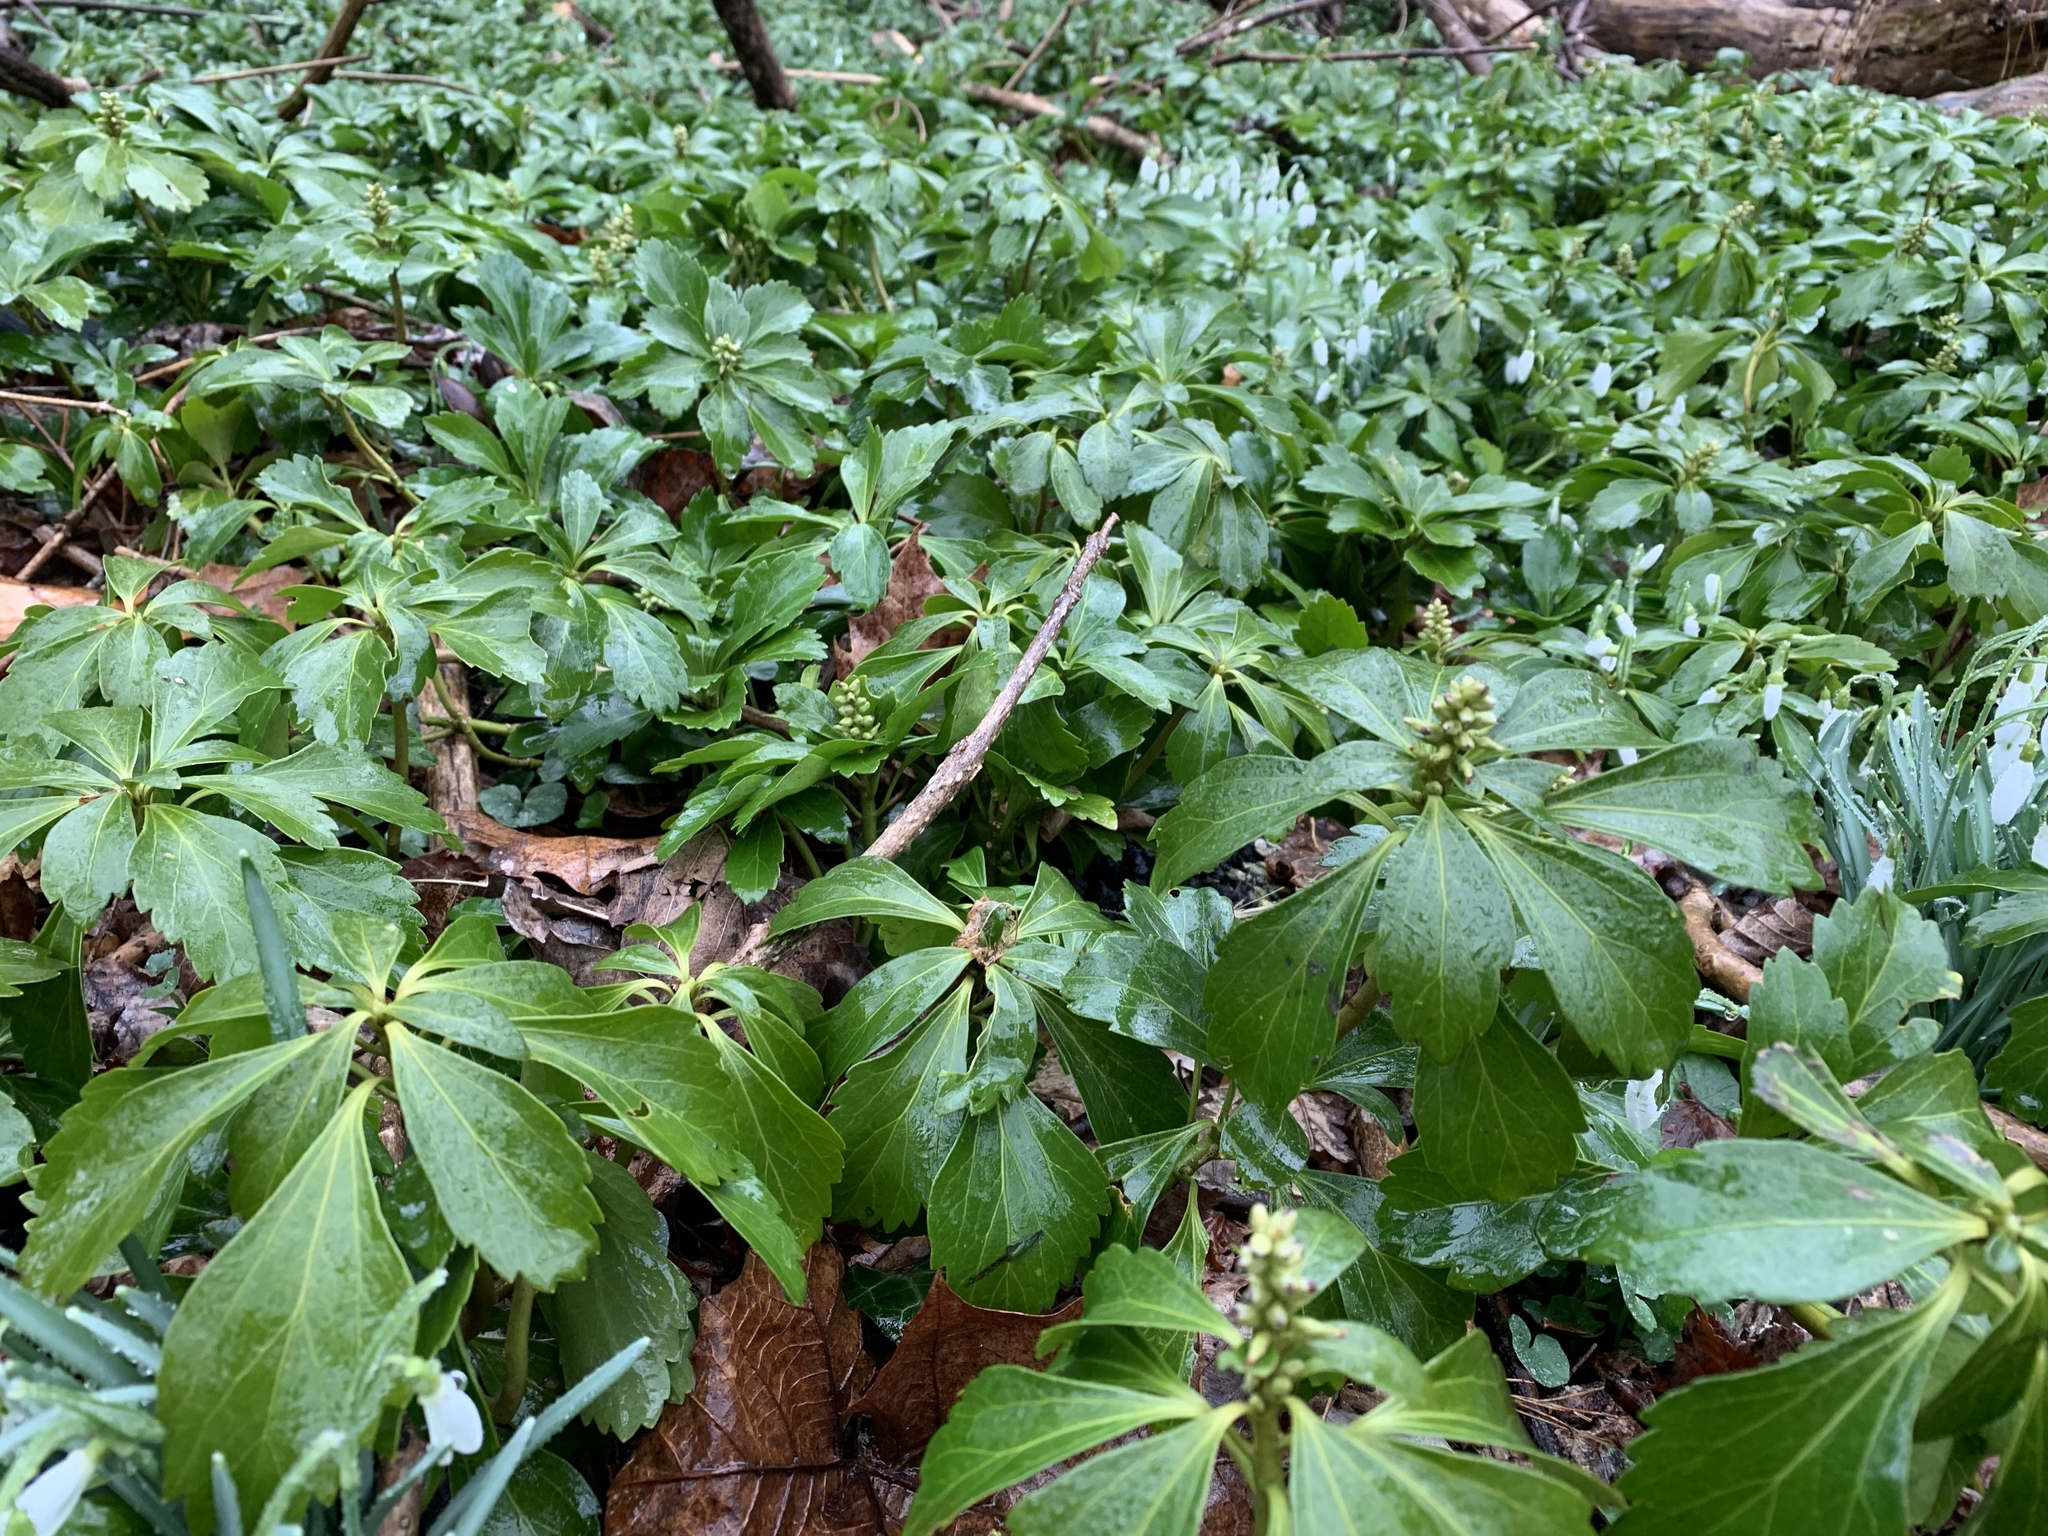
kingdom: Plantae
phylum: Tracheophyta
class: Magnoliopsida
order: Buxales
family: Buxaceae
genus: Pachysandra
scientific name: Pachysandra terminalis
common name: Japanese pachysandra
